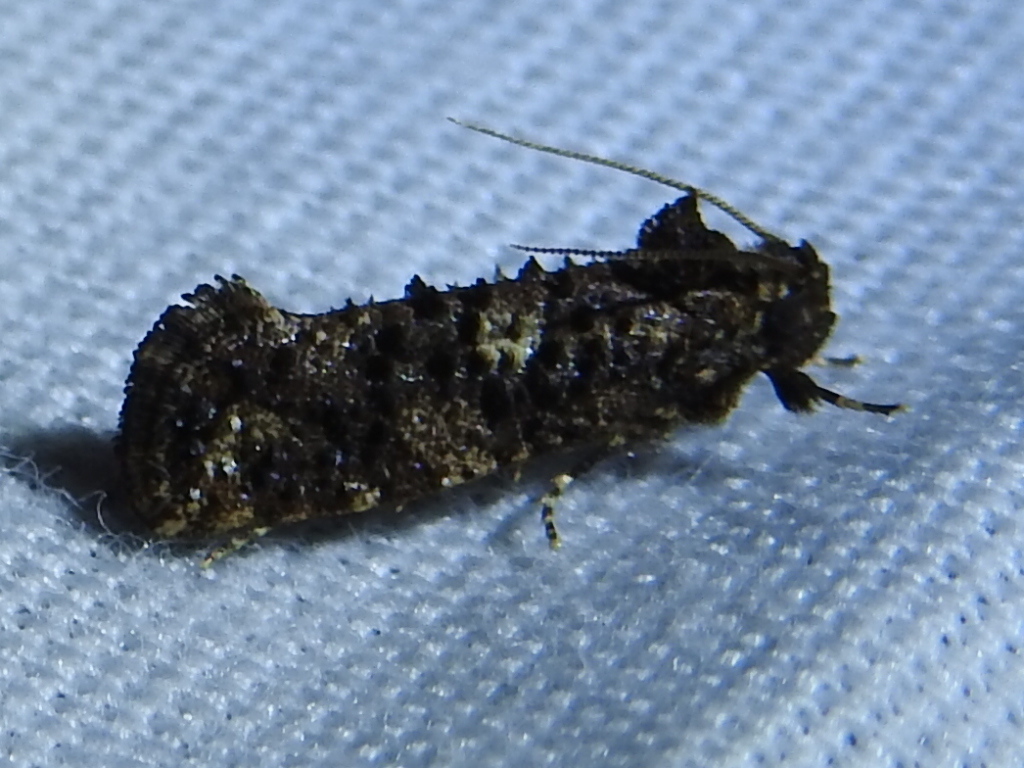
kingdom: Animalia
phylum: Arthropoda
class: Insecta
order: Lepidoptera
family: Tineidae
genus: Acrolophus
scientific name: Acrolophus cressoni
